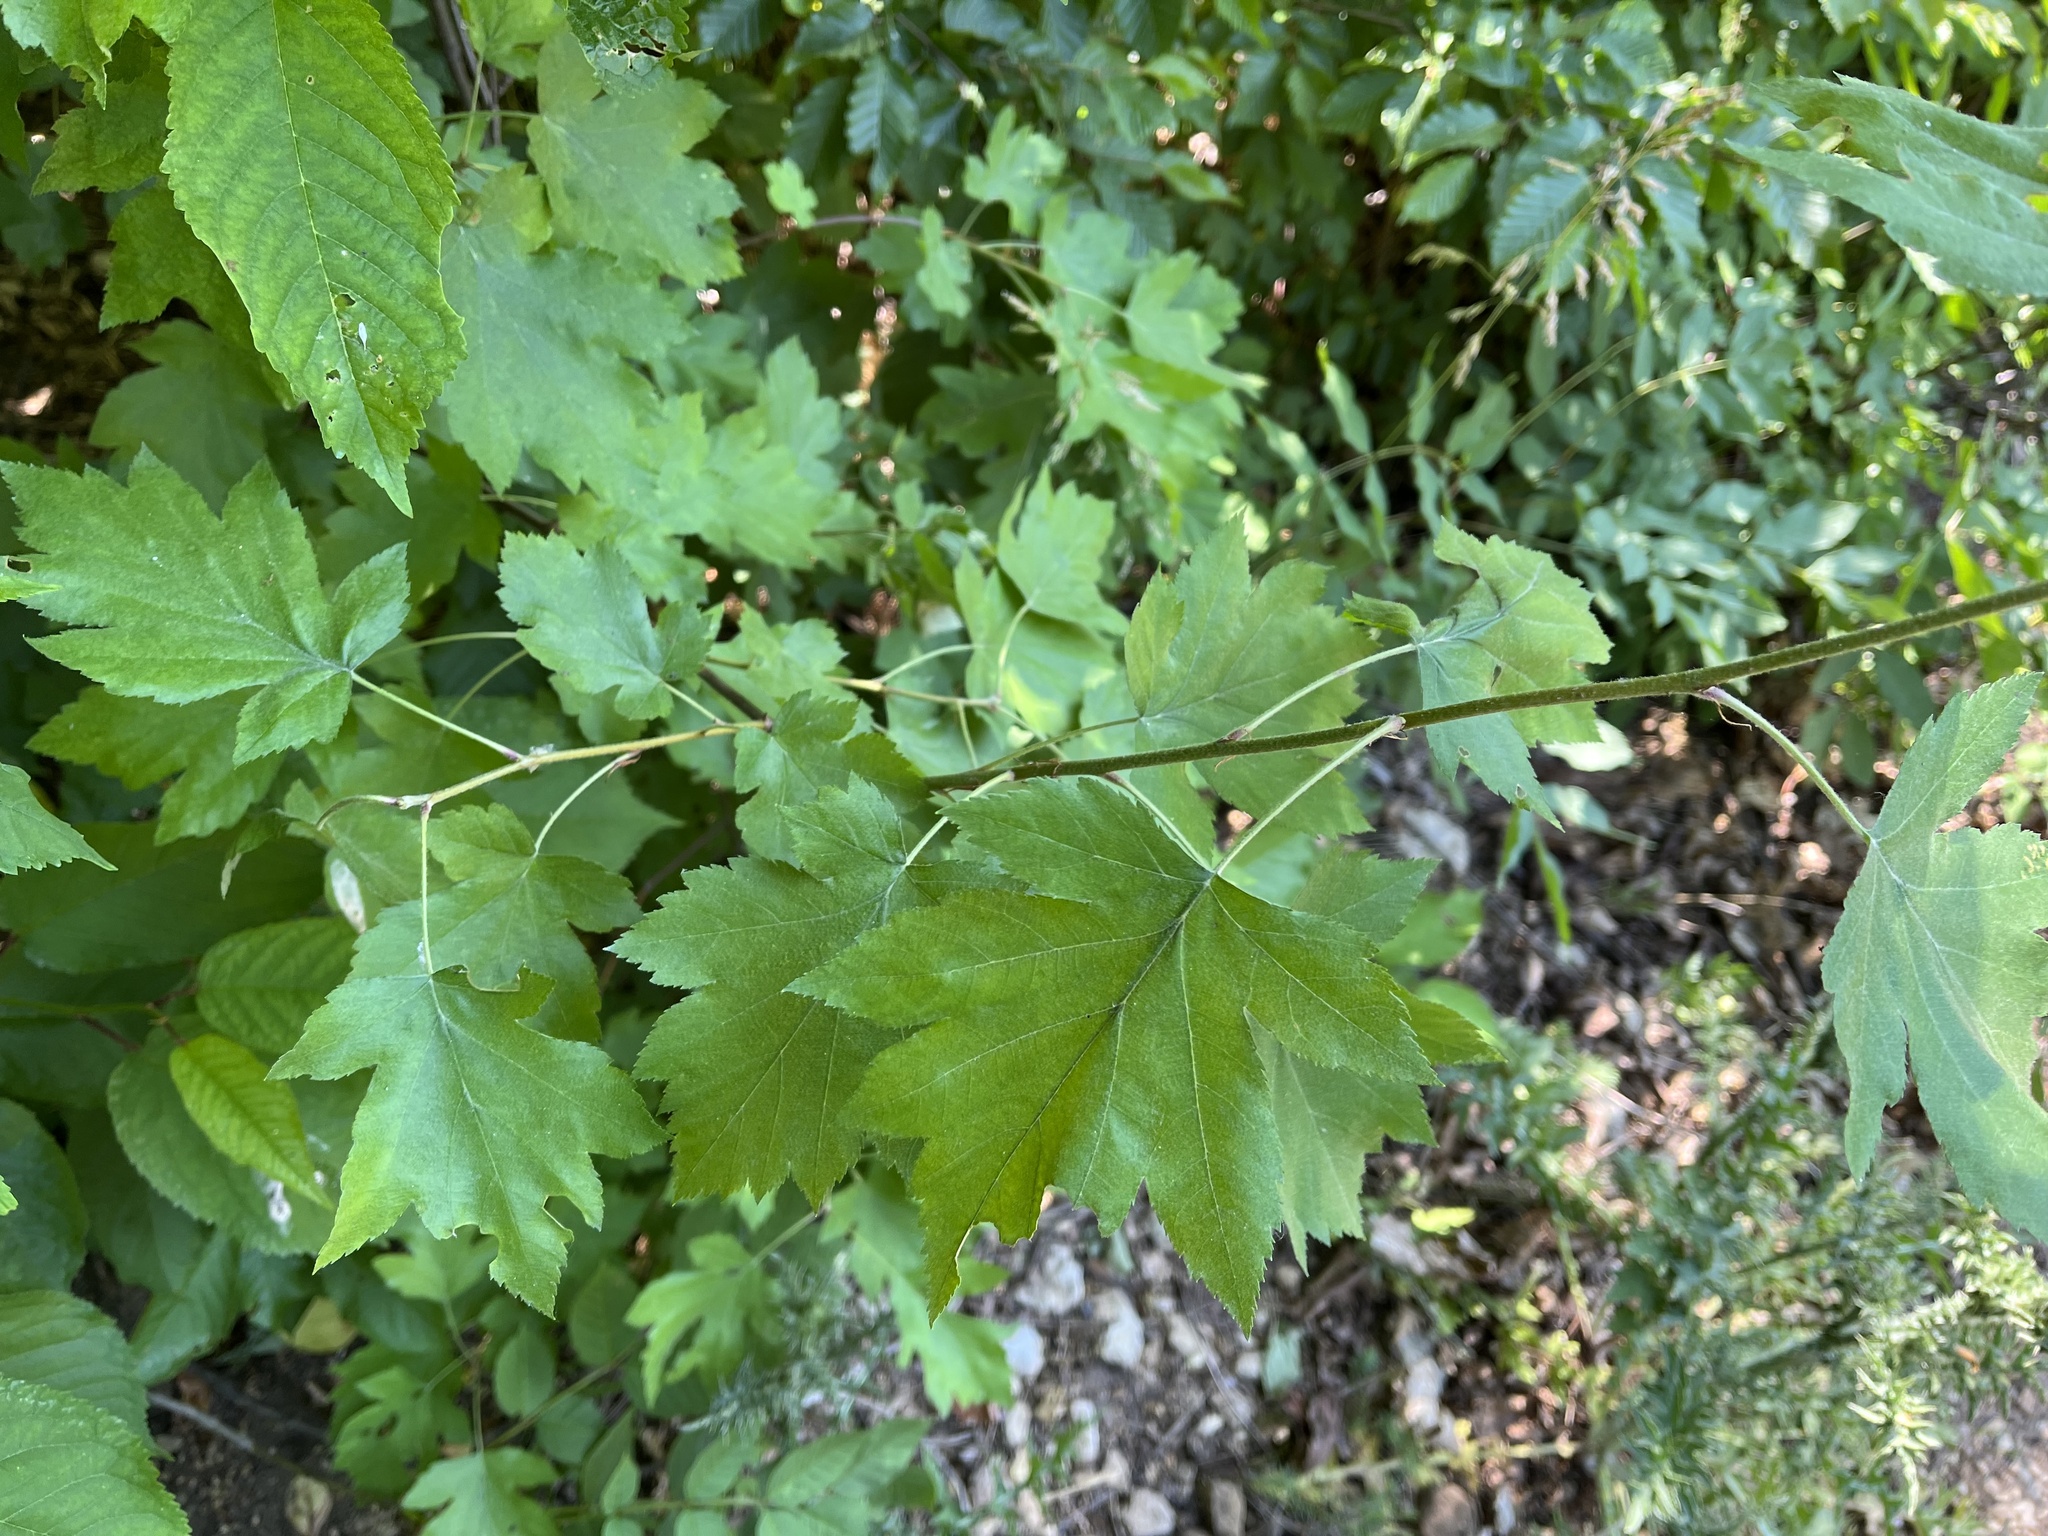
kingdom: Plantae
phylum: Tracheophyta
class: Magnoliopsida
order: Rosales
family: Rosaceae
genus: Torminalis
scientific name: Torminalis glaberrima
